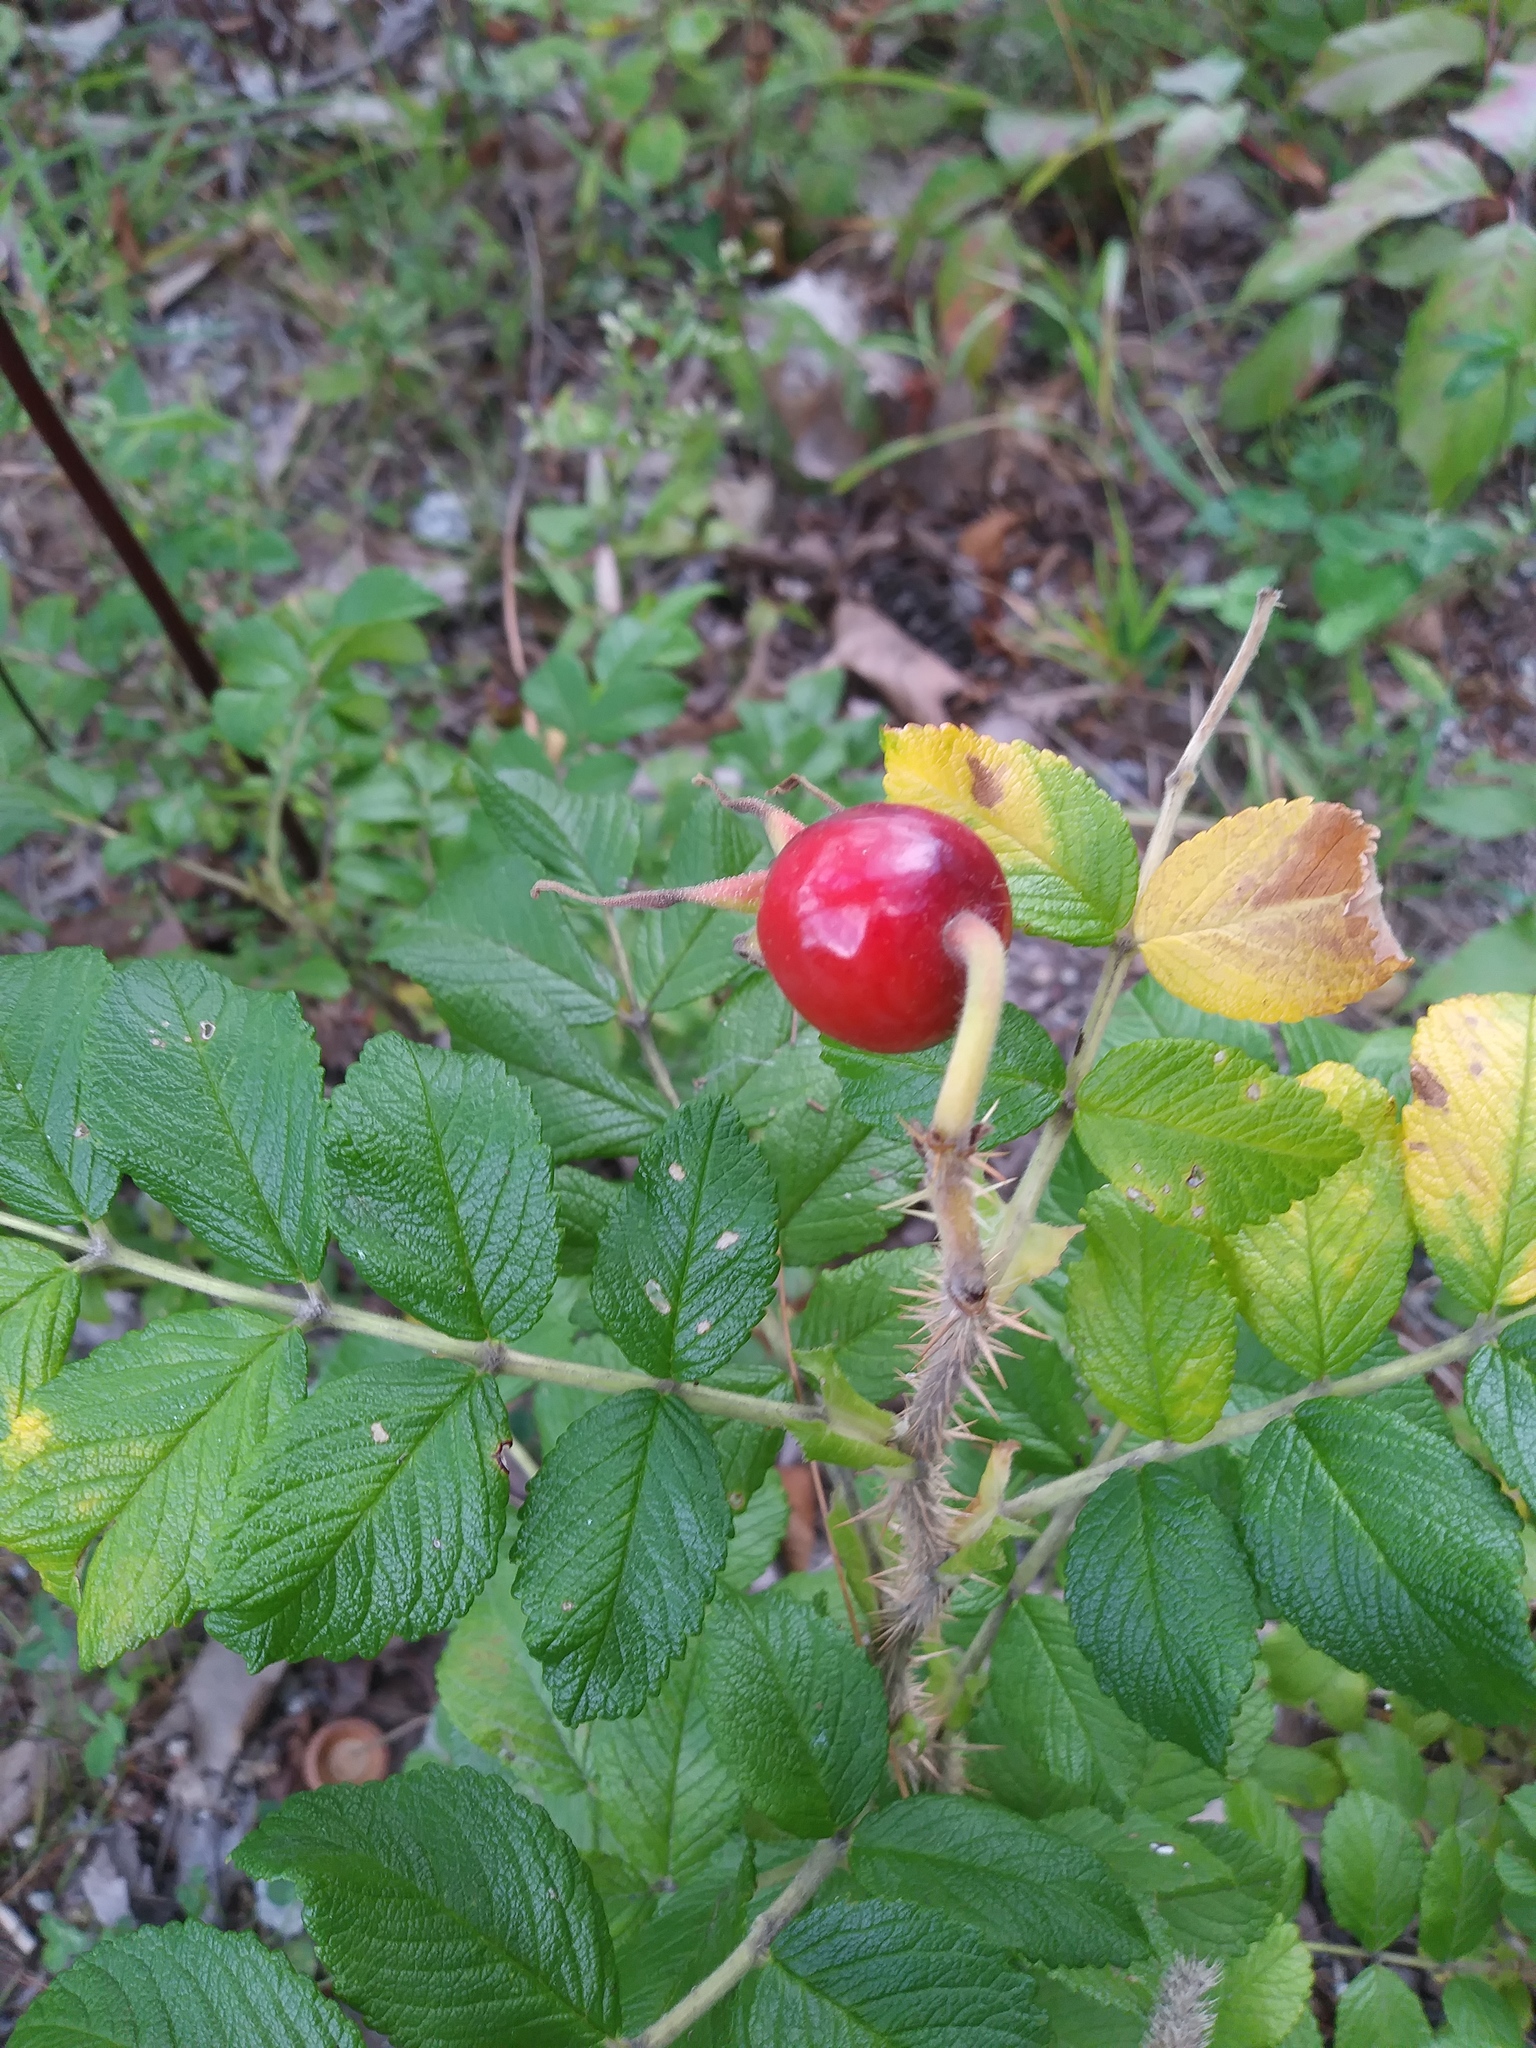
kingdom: Plantae
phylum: Tracheophyta
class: Magnoliopsida
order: Rosales
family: Rosaceae
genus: Rosa
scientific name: Rosa rugosa
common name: Japanese rose
